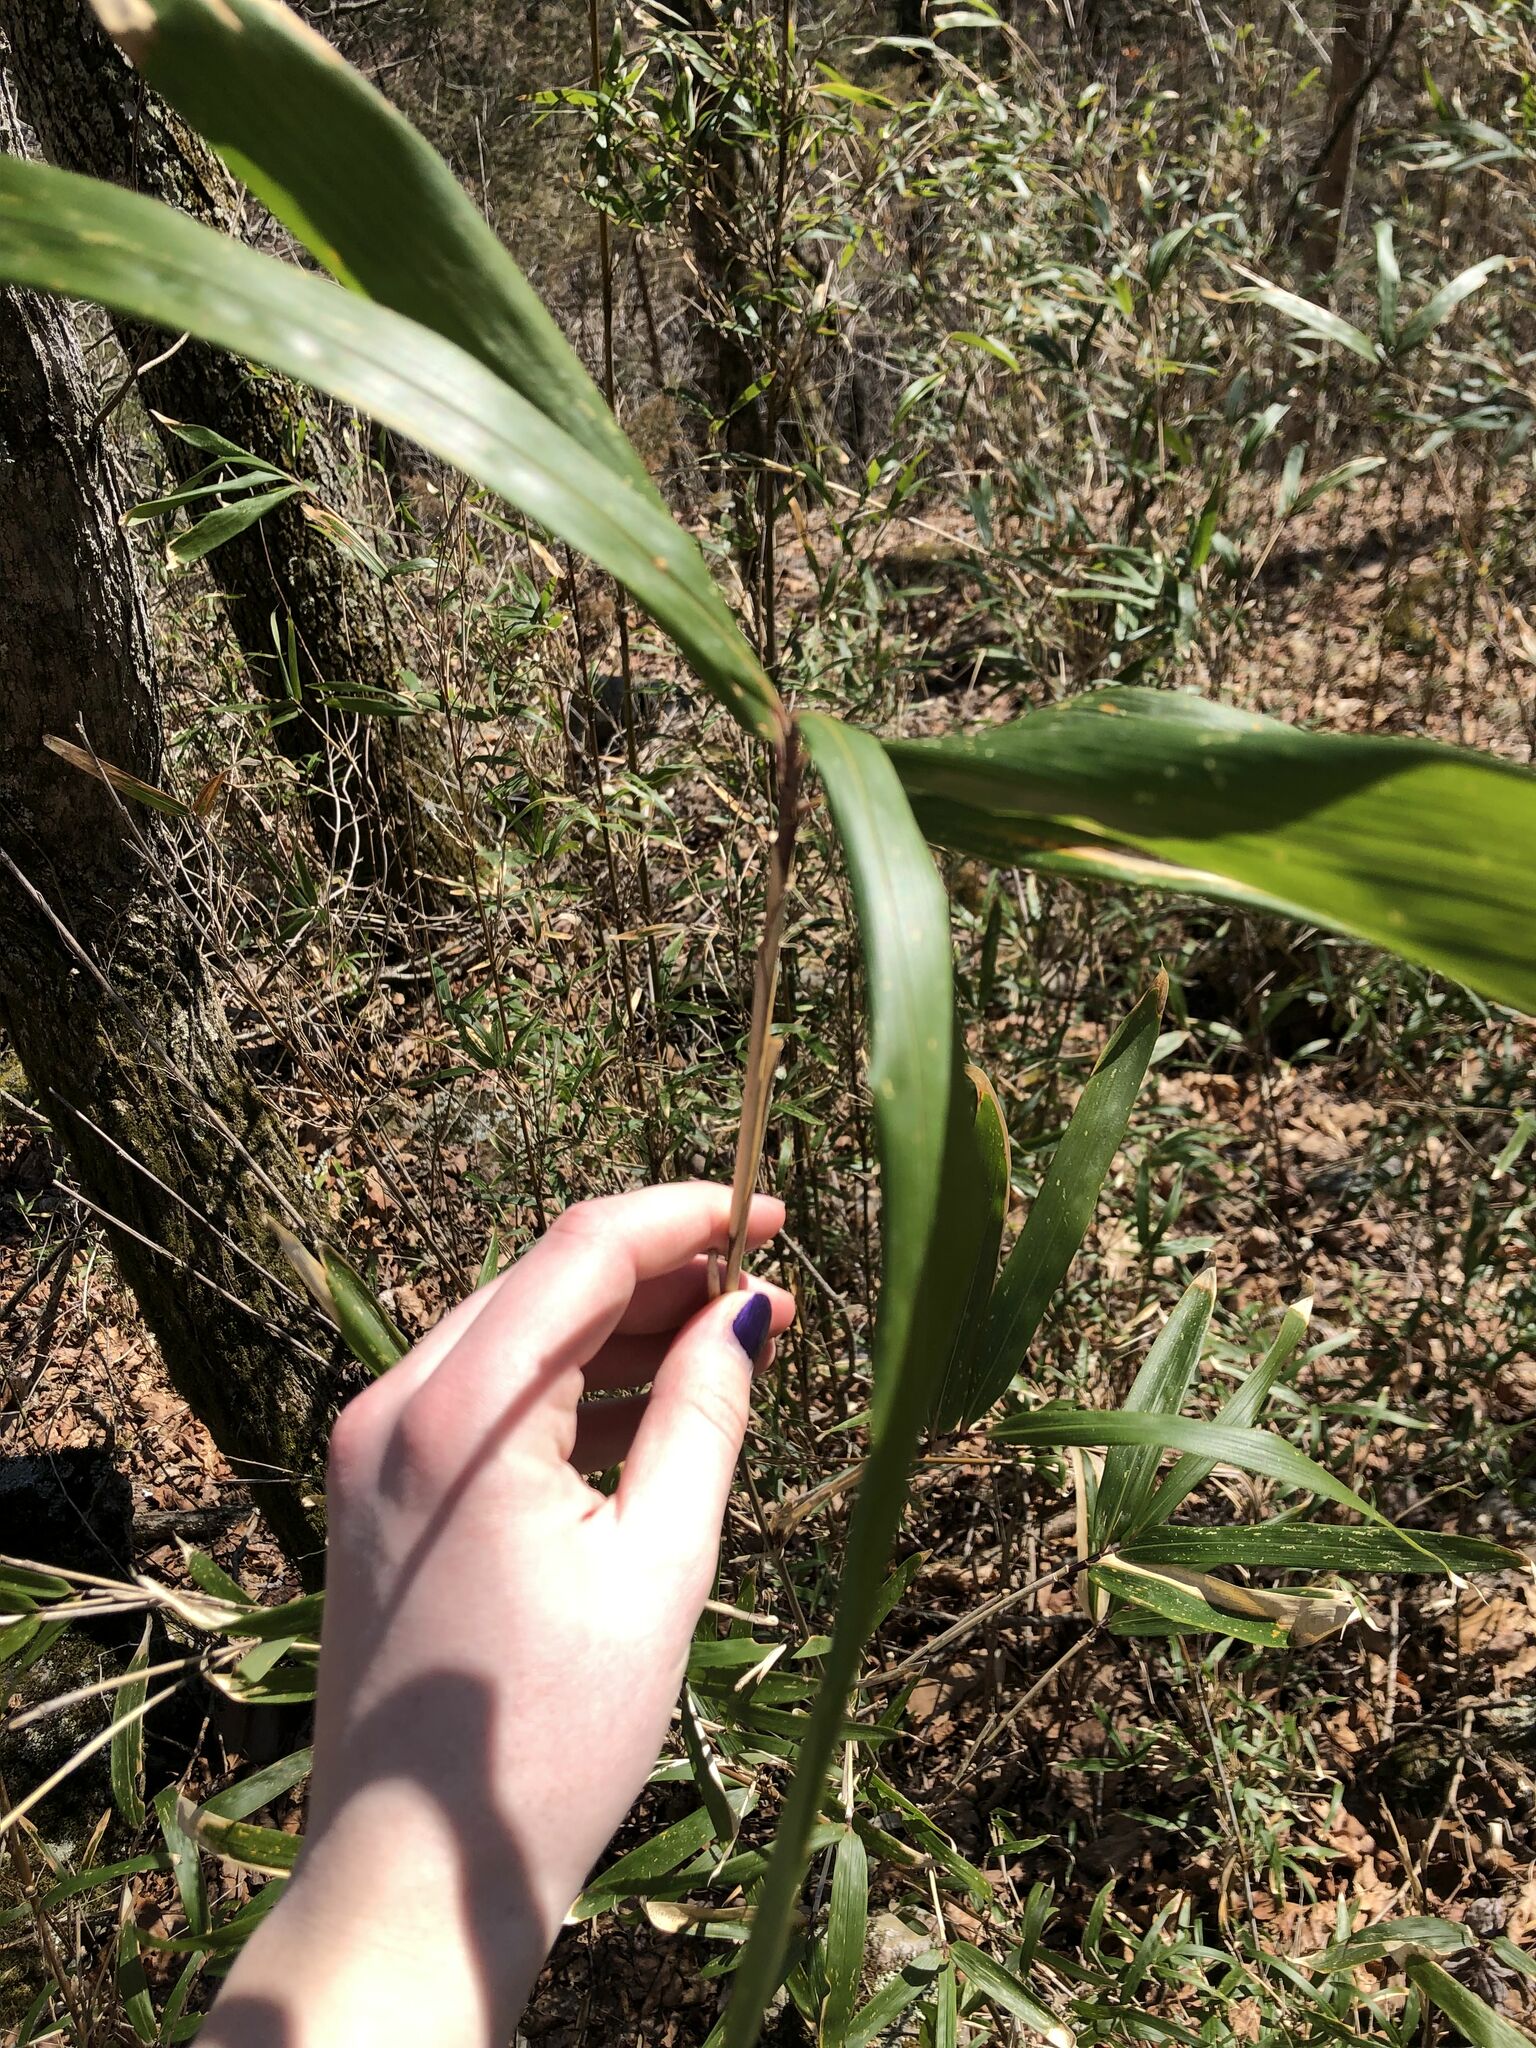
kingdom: Plantae
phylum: Tracheophyta
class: Liliopsida
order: Poales
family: Poaceae
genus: Arundinaria
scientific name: Arundinaria gigantea
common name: Giant cane
